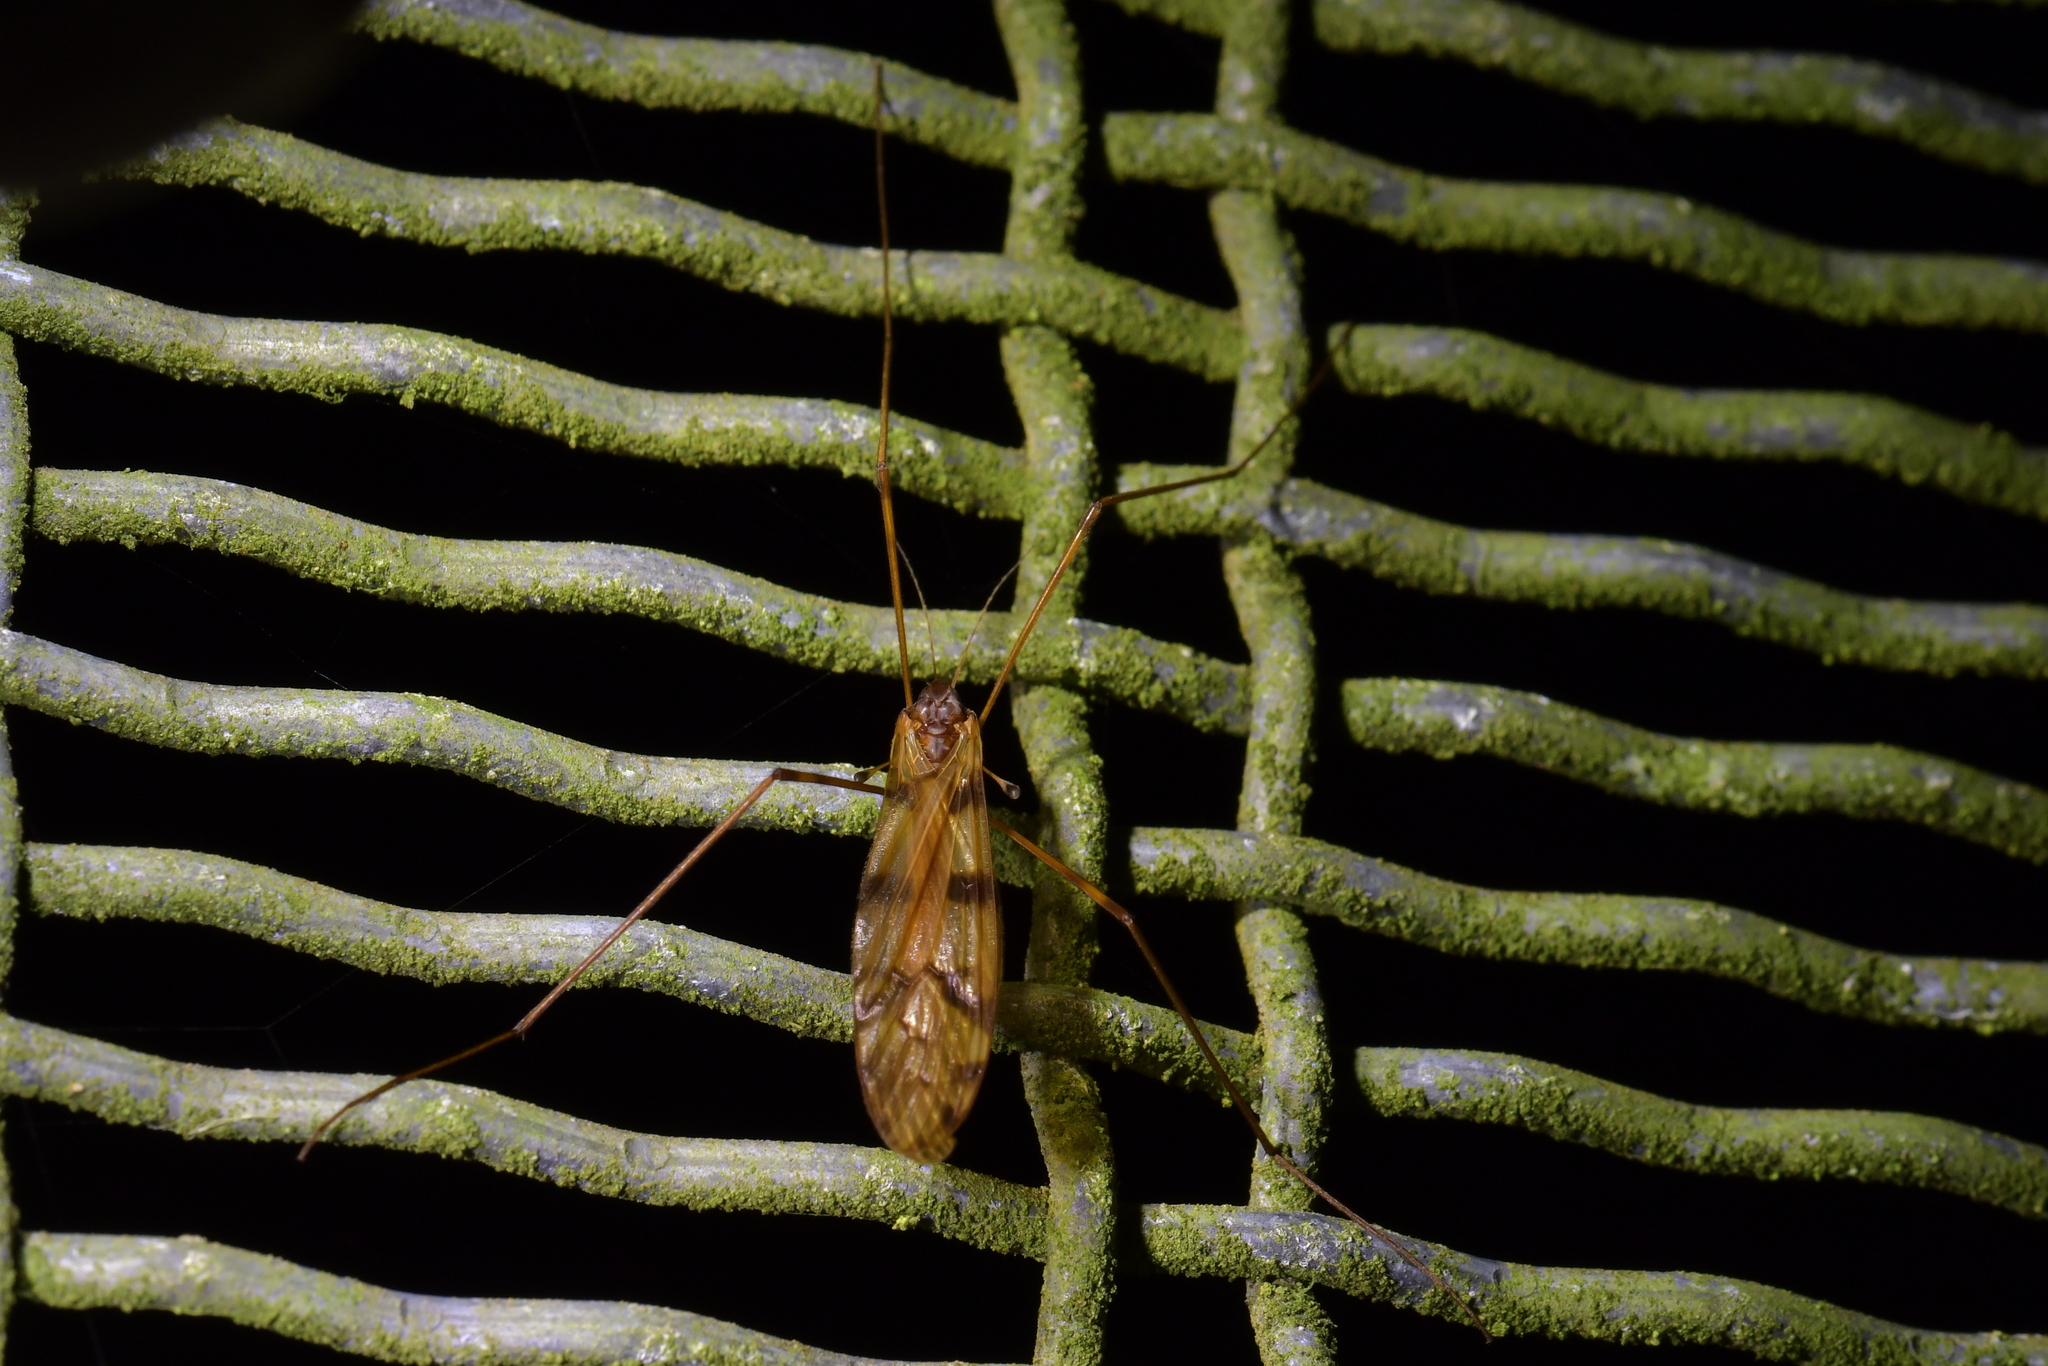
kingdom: Animalia
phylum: Arthropoda
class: Insecta
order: Diptera
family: Limoniidae
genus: Austrolimnophila
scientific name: Austrolimnophila cyatheti
